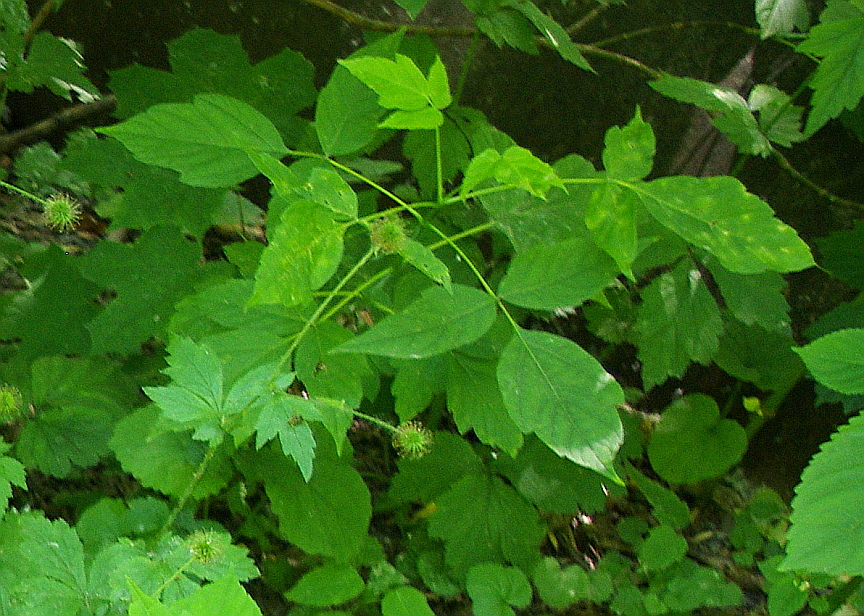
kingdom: Plantae
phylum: Tracheophyta
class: Magnoliopsida
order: Sapindales
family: Sapindaceae
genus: Acer
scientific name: Acer negundo
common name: Ashleaf maple
